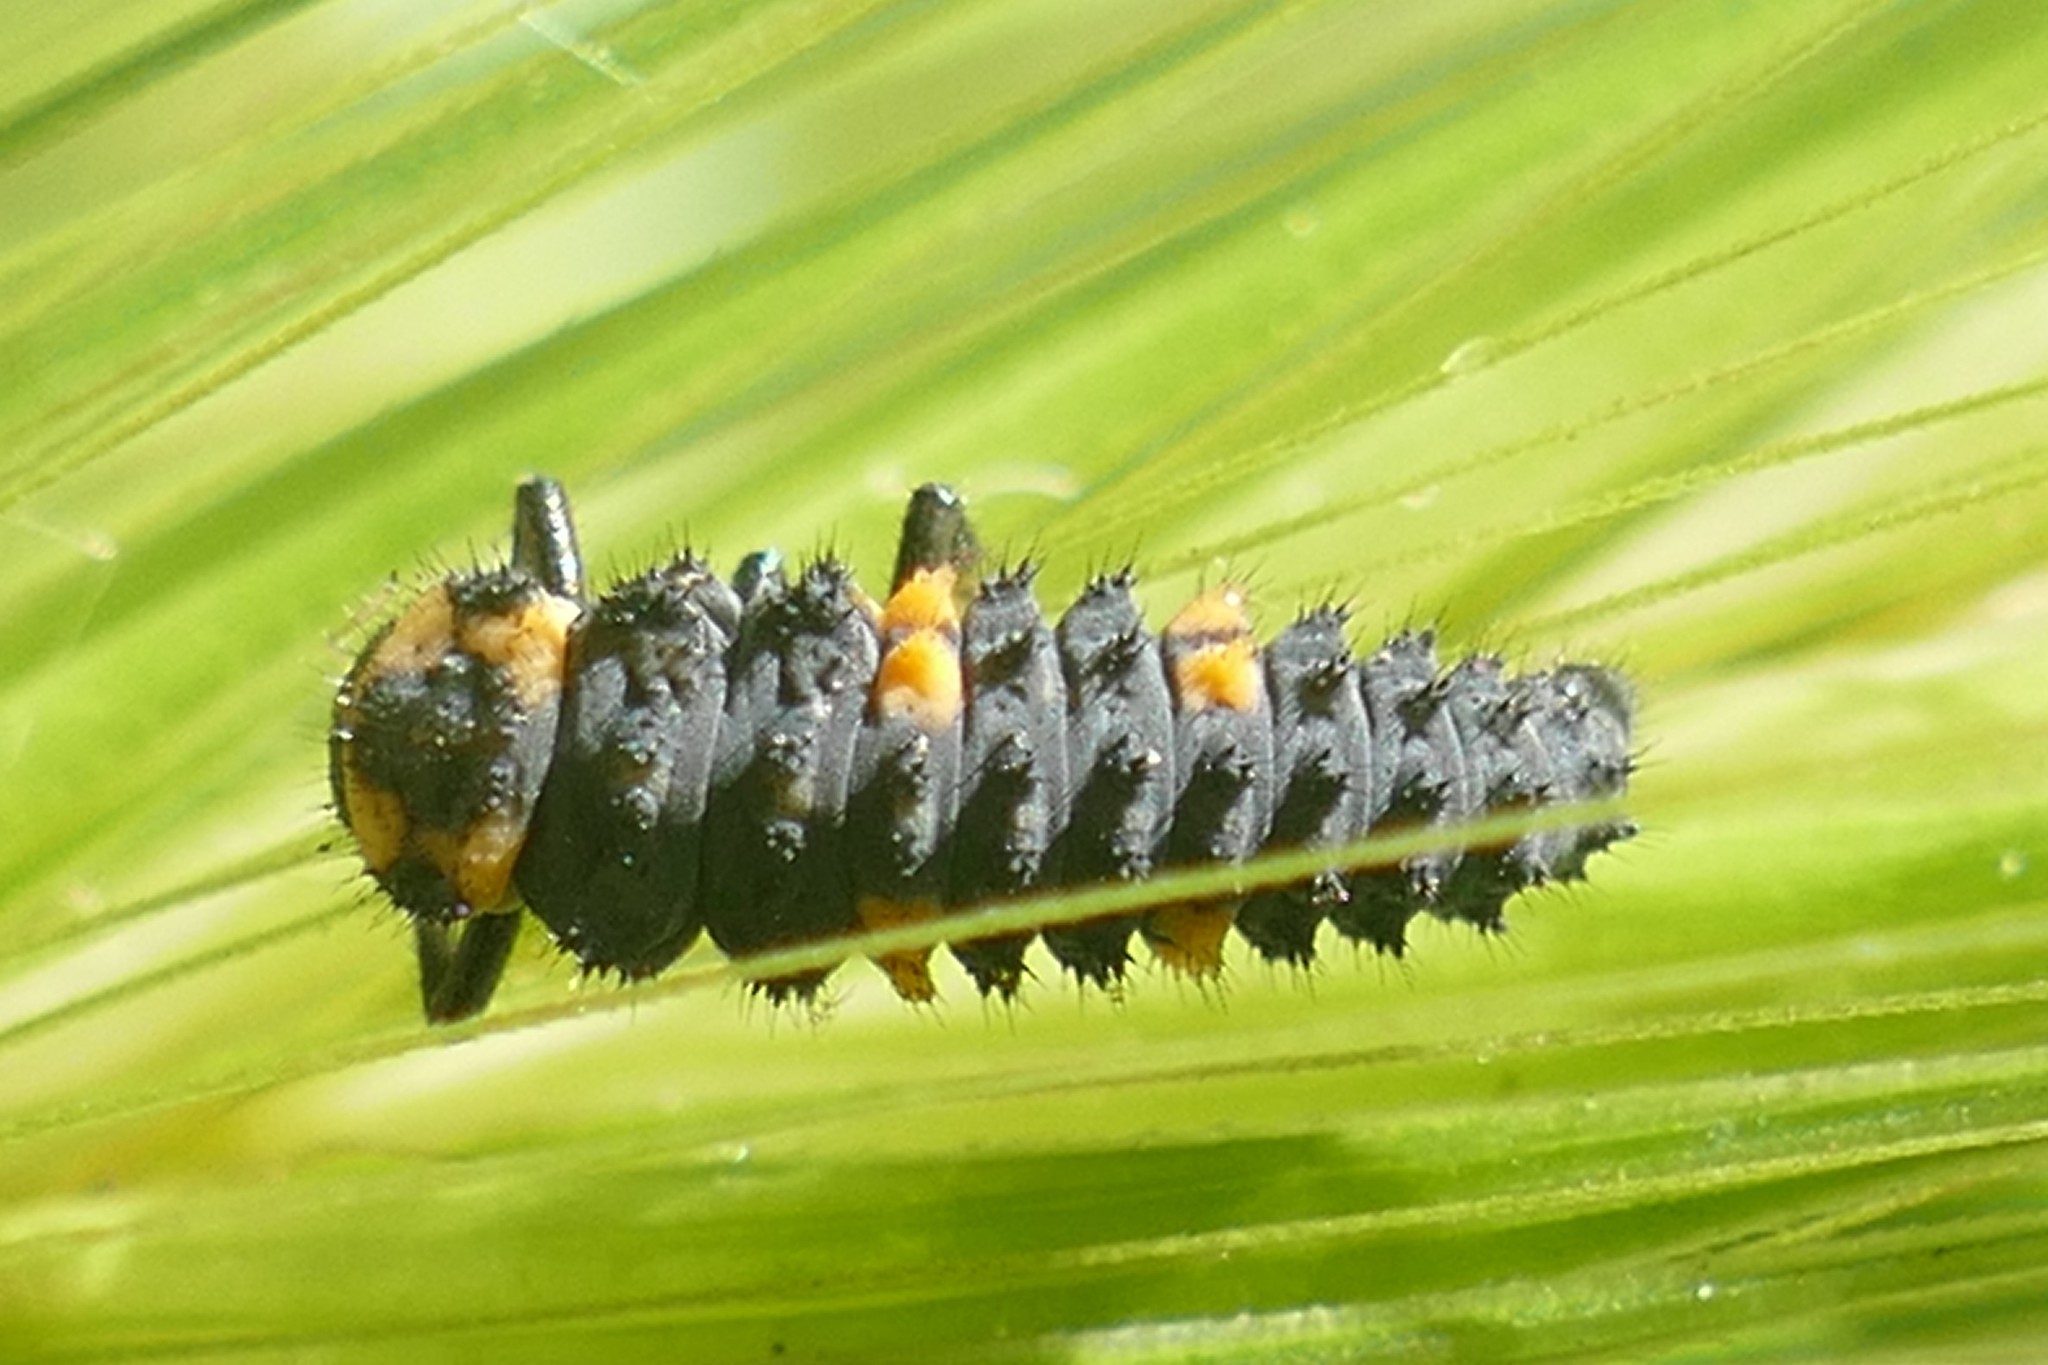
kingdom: Animalia
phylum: Arthropoda
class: Insecta
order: Coleoptera
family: Coccinellidae
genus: Coccinella
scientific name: Coccinella septempunctata
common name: Sevenspotted lady beetle
